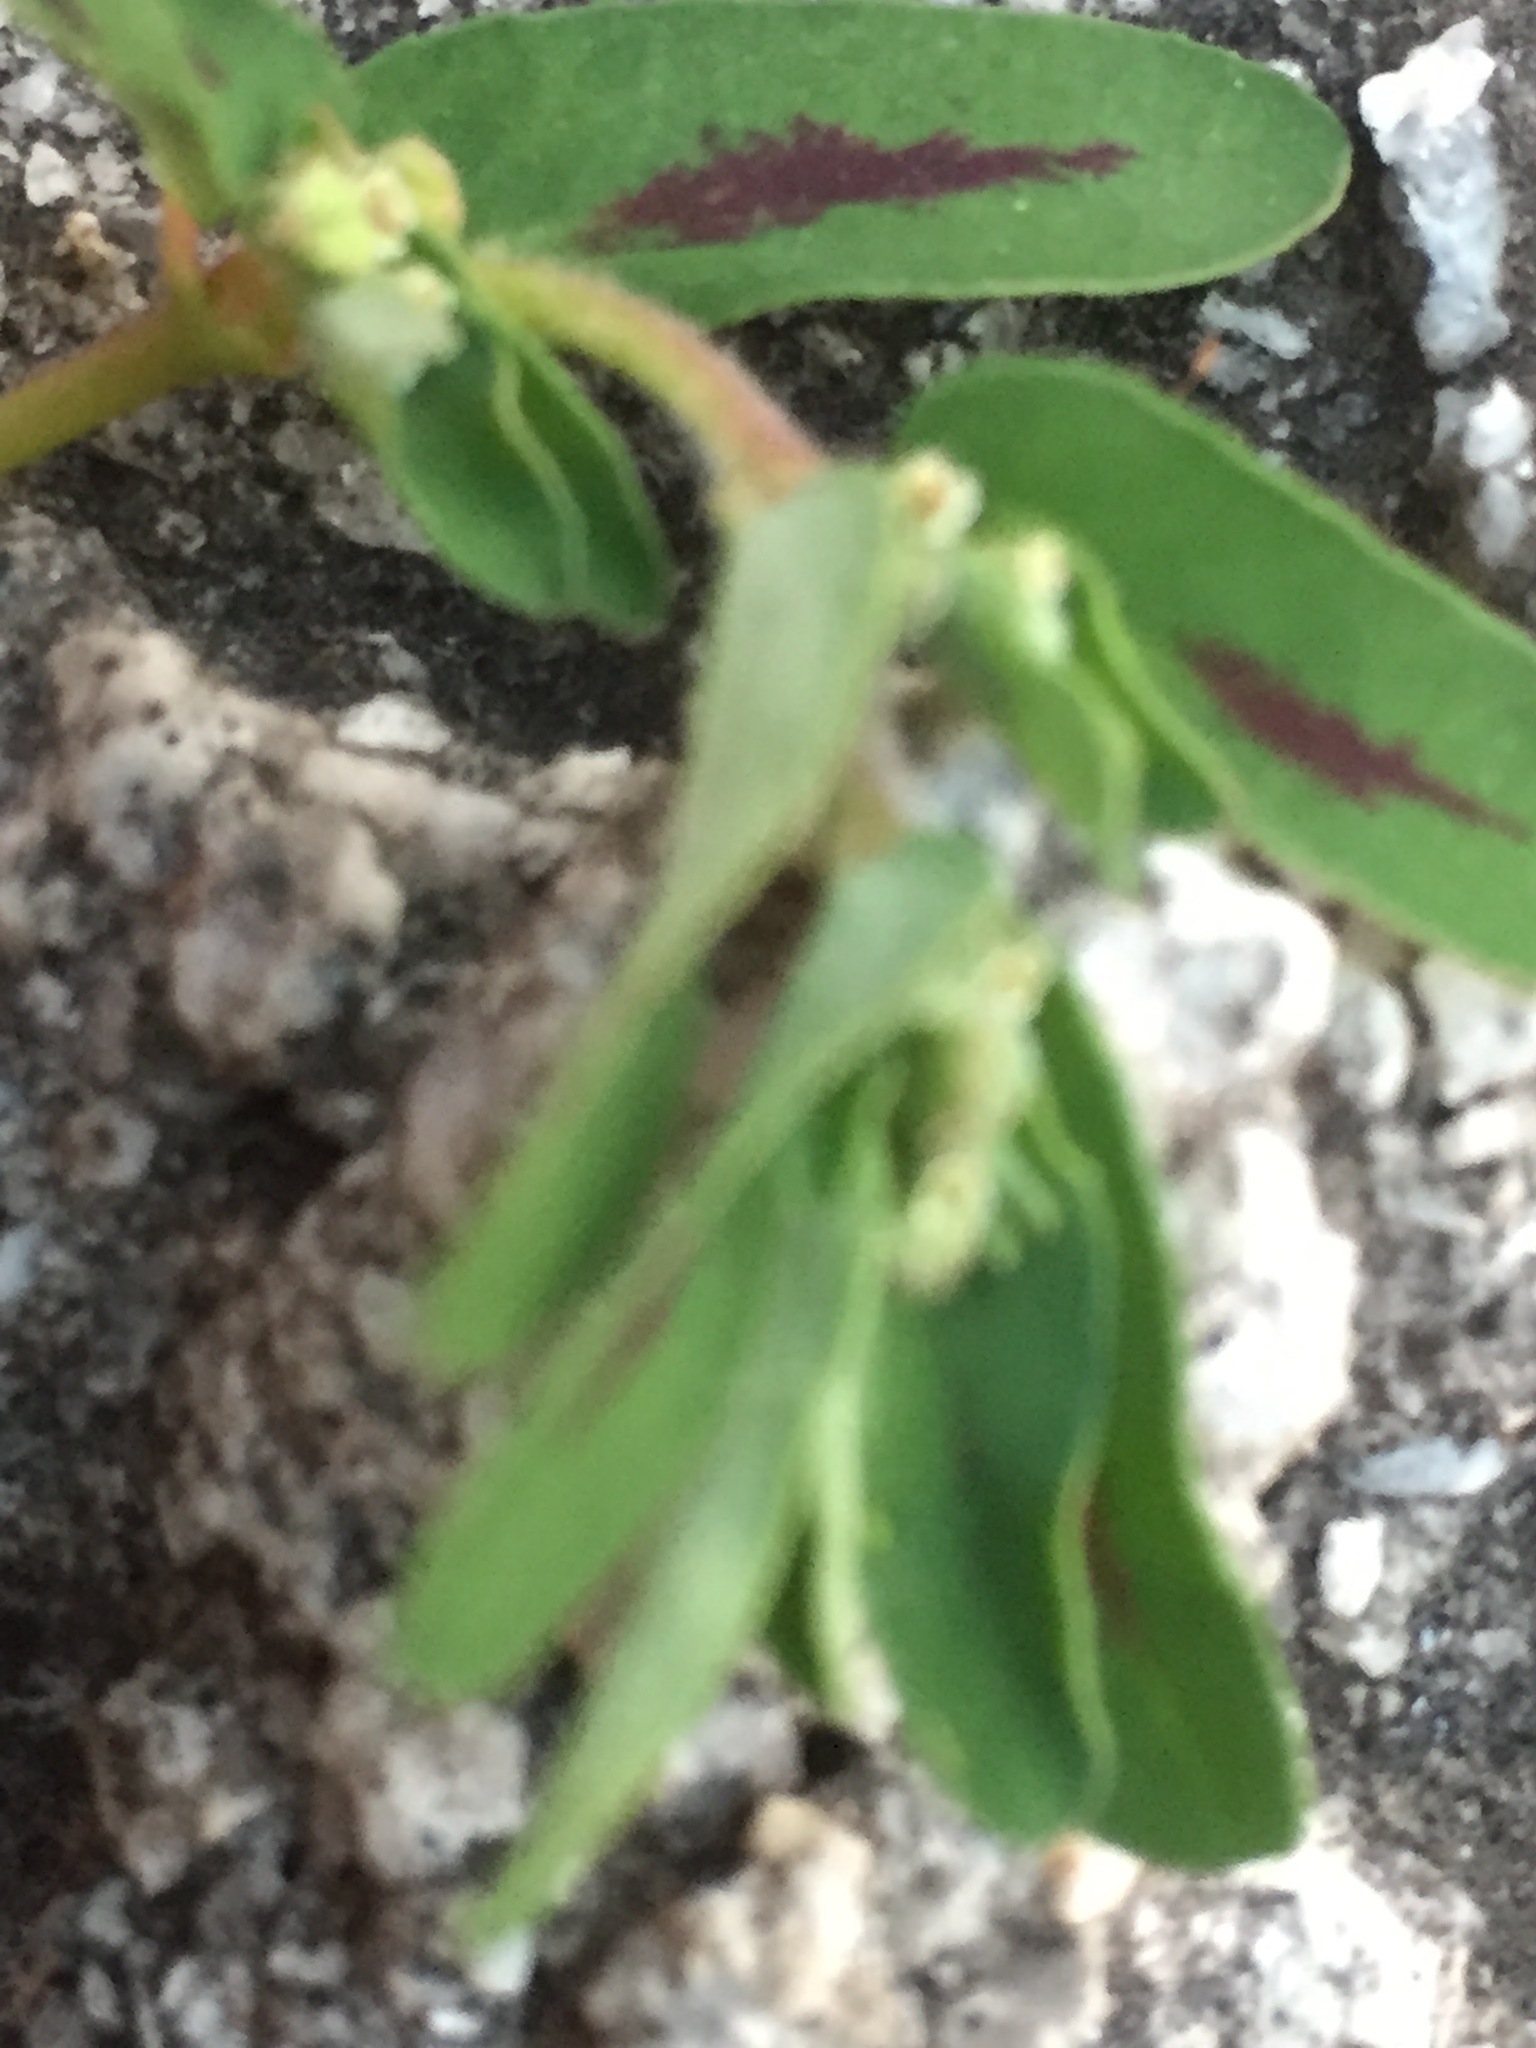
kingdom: Plantae
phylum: Tracheophyta
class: Magnoliopsida
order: Malpighiales
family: Euphorbiaceae
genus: Euphorbia
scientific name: Euphorbia maculata
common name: Spotted spurge
